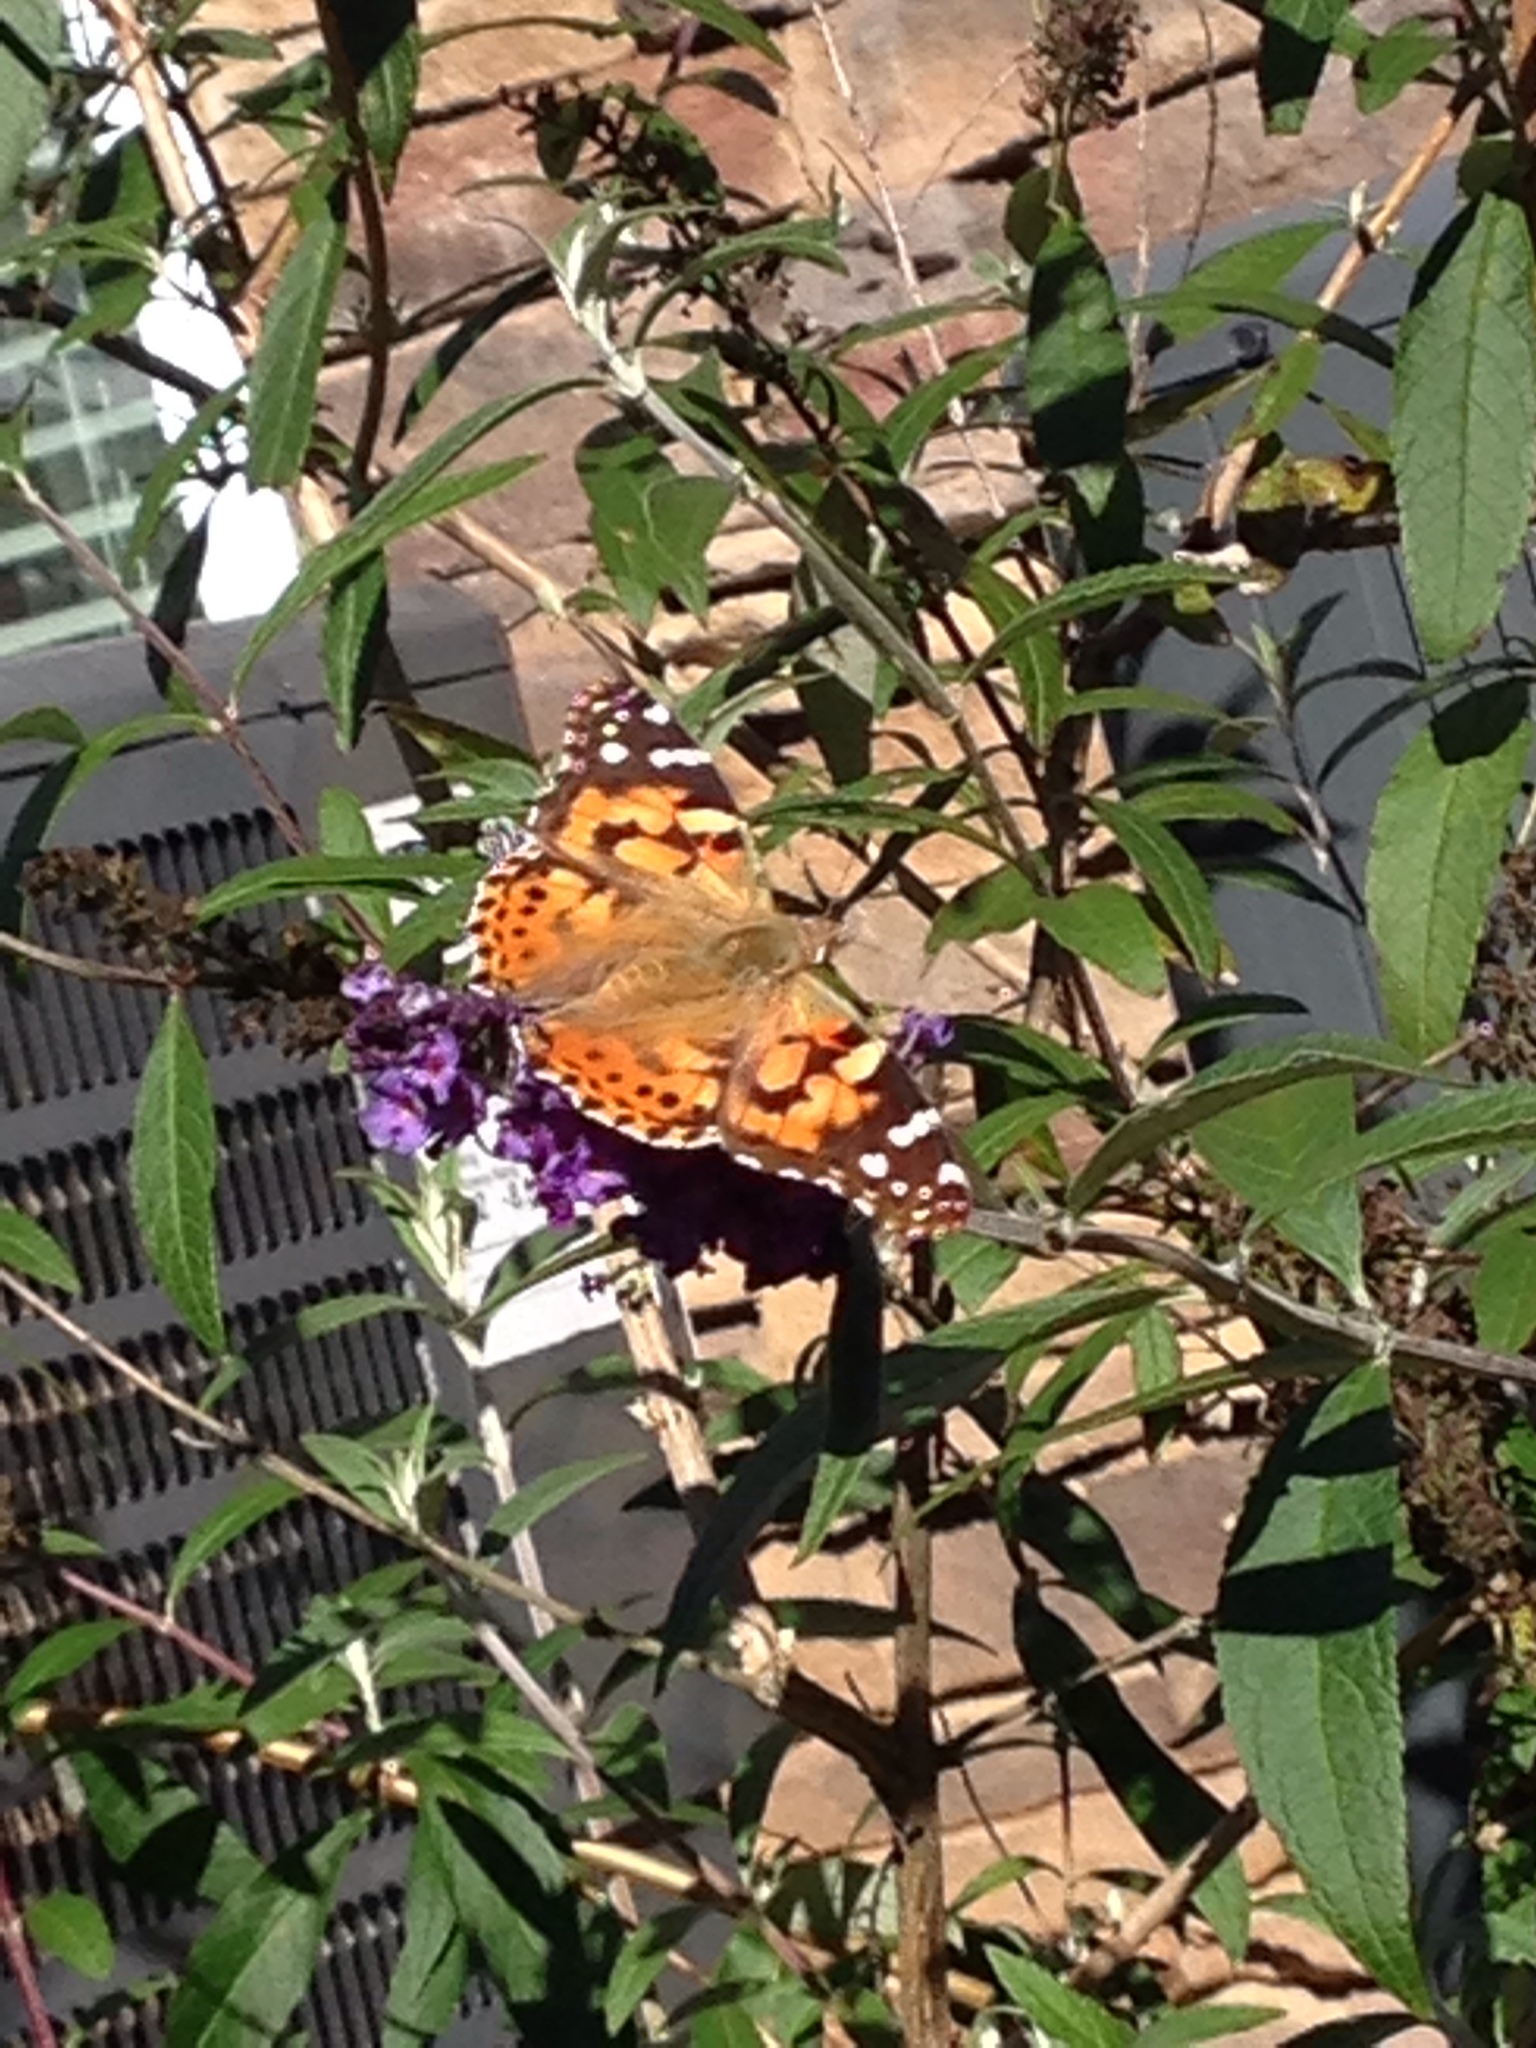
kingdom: Animalia
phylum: Arthropoda
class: Insecta
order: Lepidoptera
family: Nymphalidae
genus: Vanessa
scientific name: Vanessa cardui
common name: Painted lady
